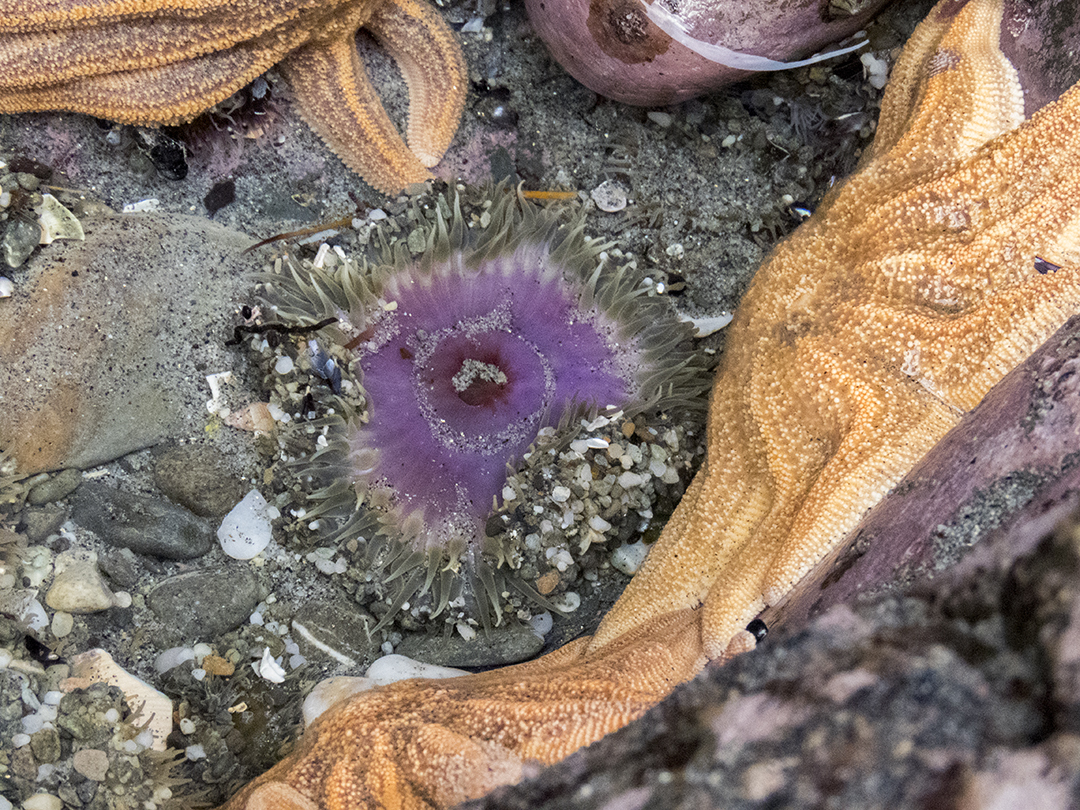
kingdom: Animalia
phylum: Cnidaria
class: Anthozoa
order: Actiniaria
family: Actiniidae
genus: Oulactis
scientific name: Oulactis magna
